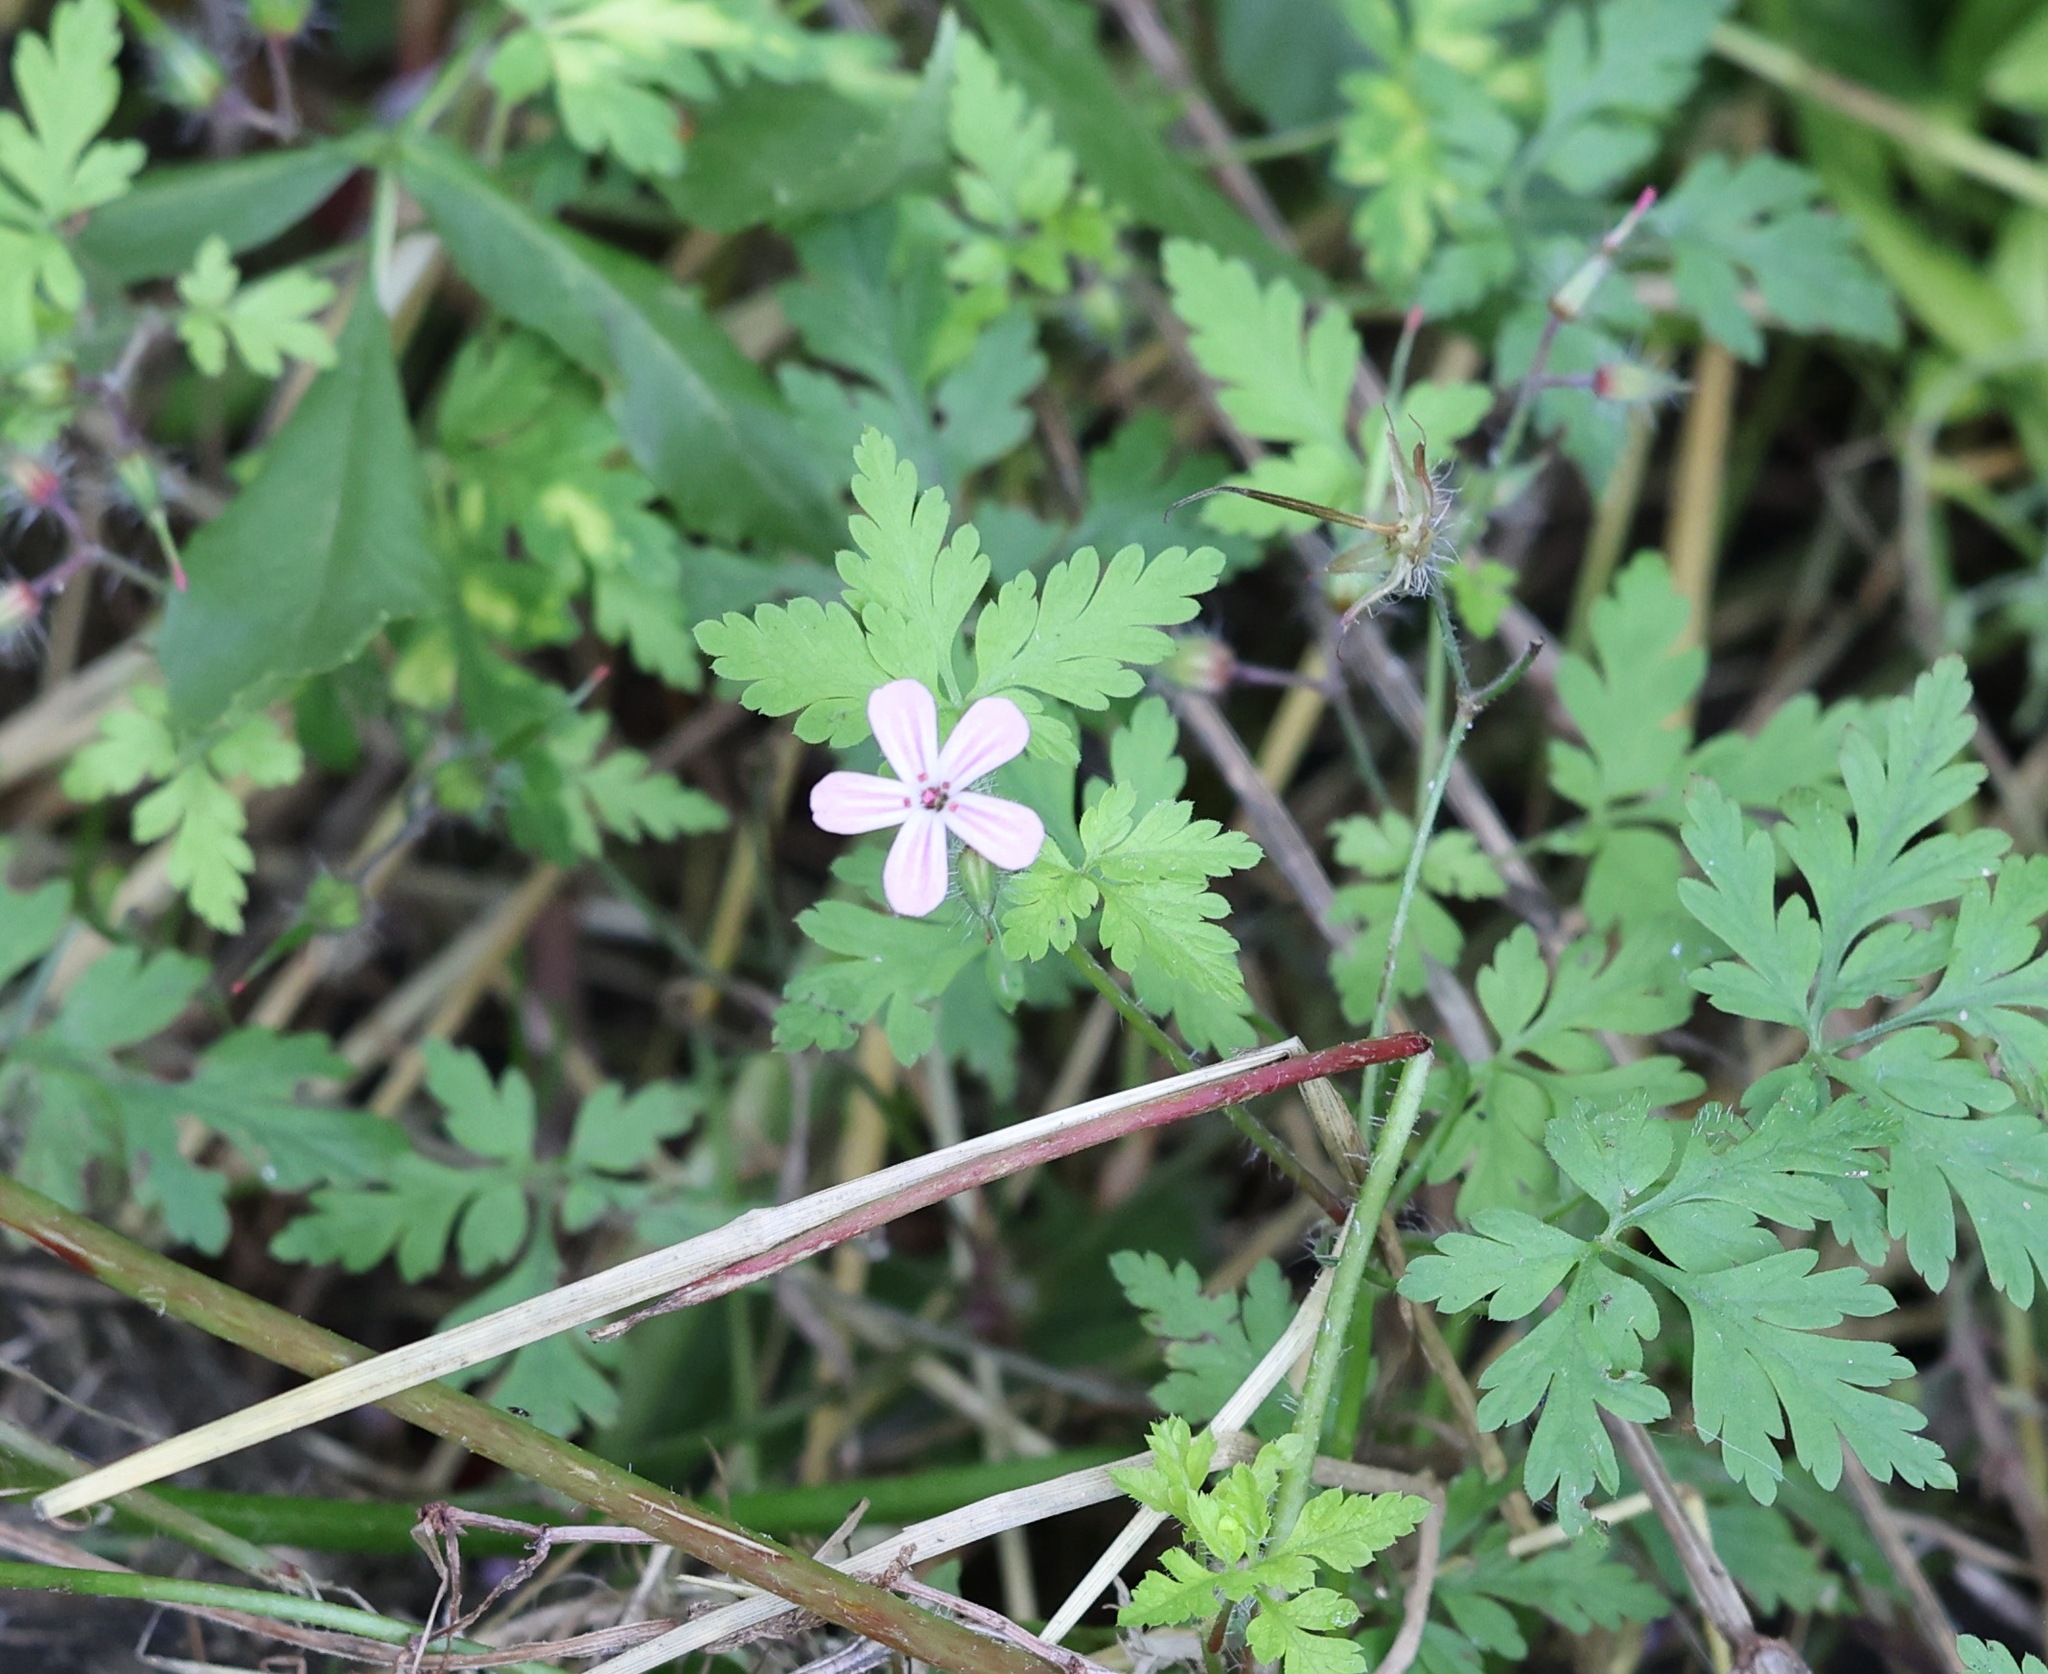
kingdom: Plantae
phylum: Tracheophyta
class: Magnoliopsida
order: Geraniales
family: Geraniaceae
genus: Geranium
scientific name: Geranium robertianum
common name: Herb-robert
